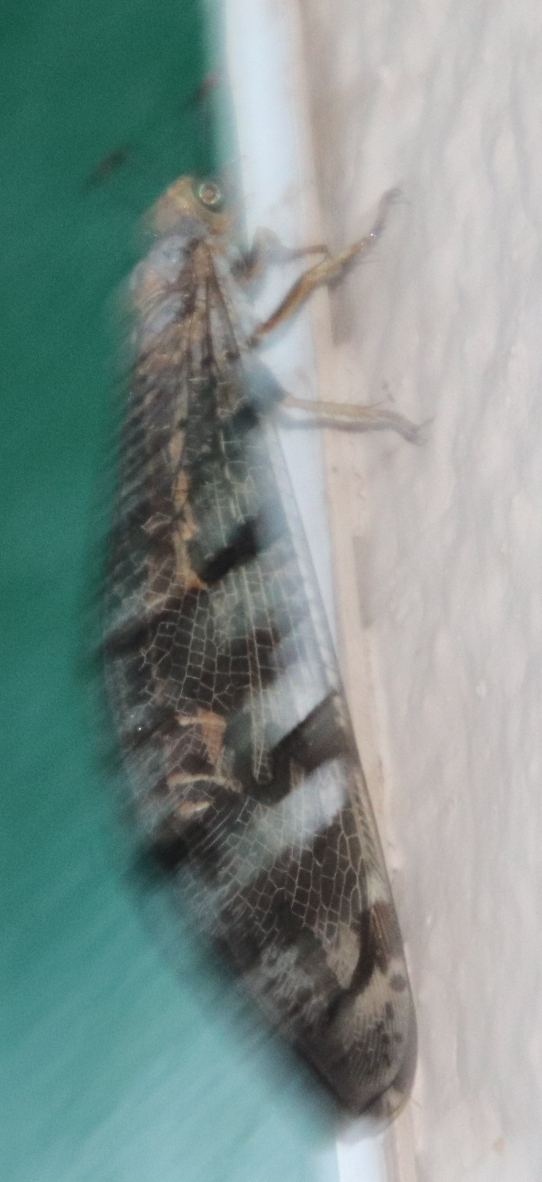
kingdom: Animalia
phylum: Arthropoda
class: Insecta
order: Neuroptera
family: Myrmeleontidae
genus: Palpares
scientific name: Palpares immensus
